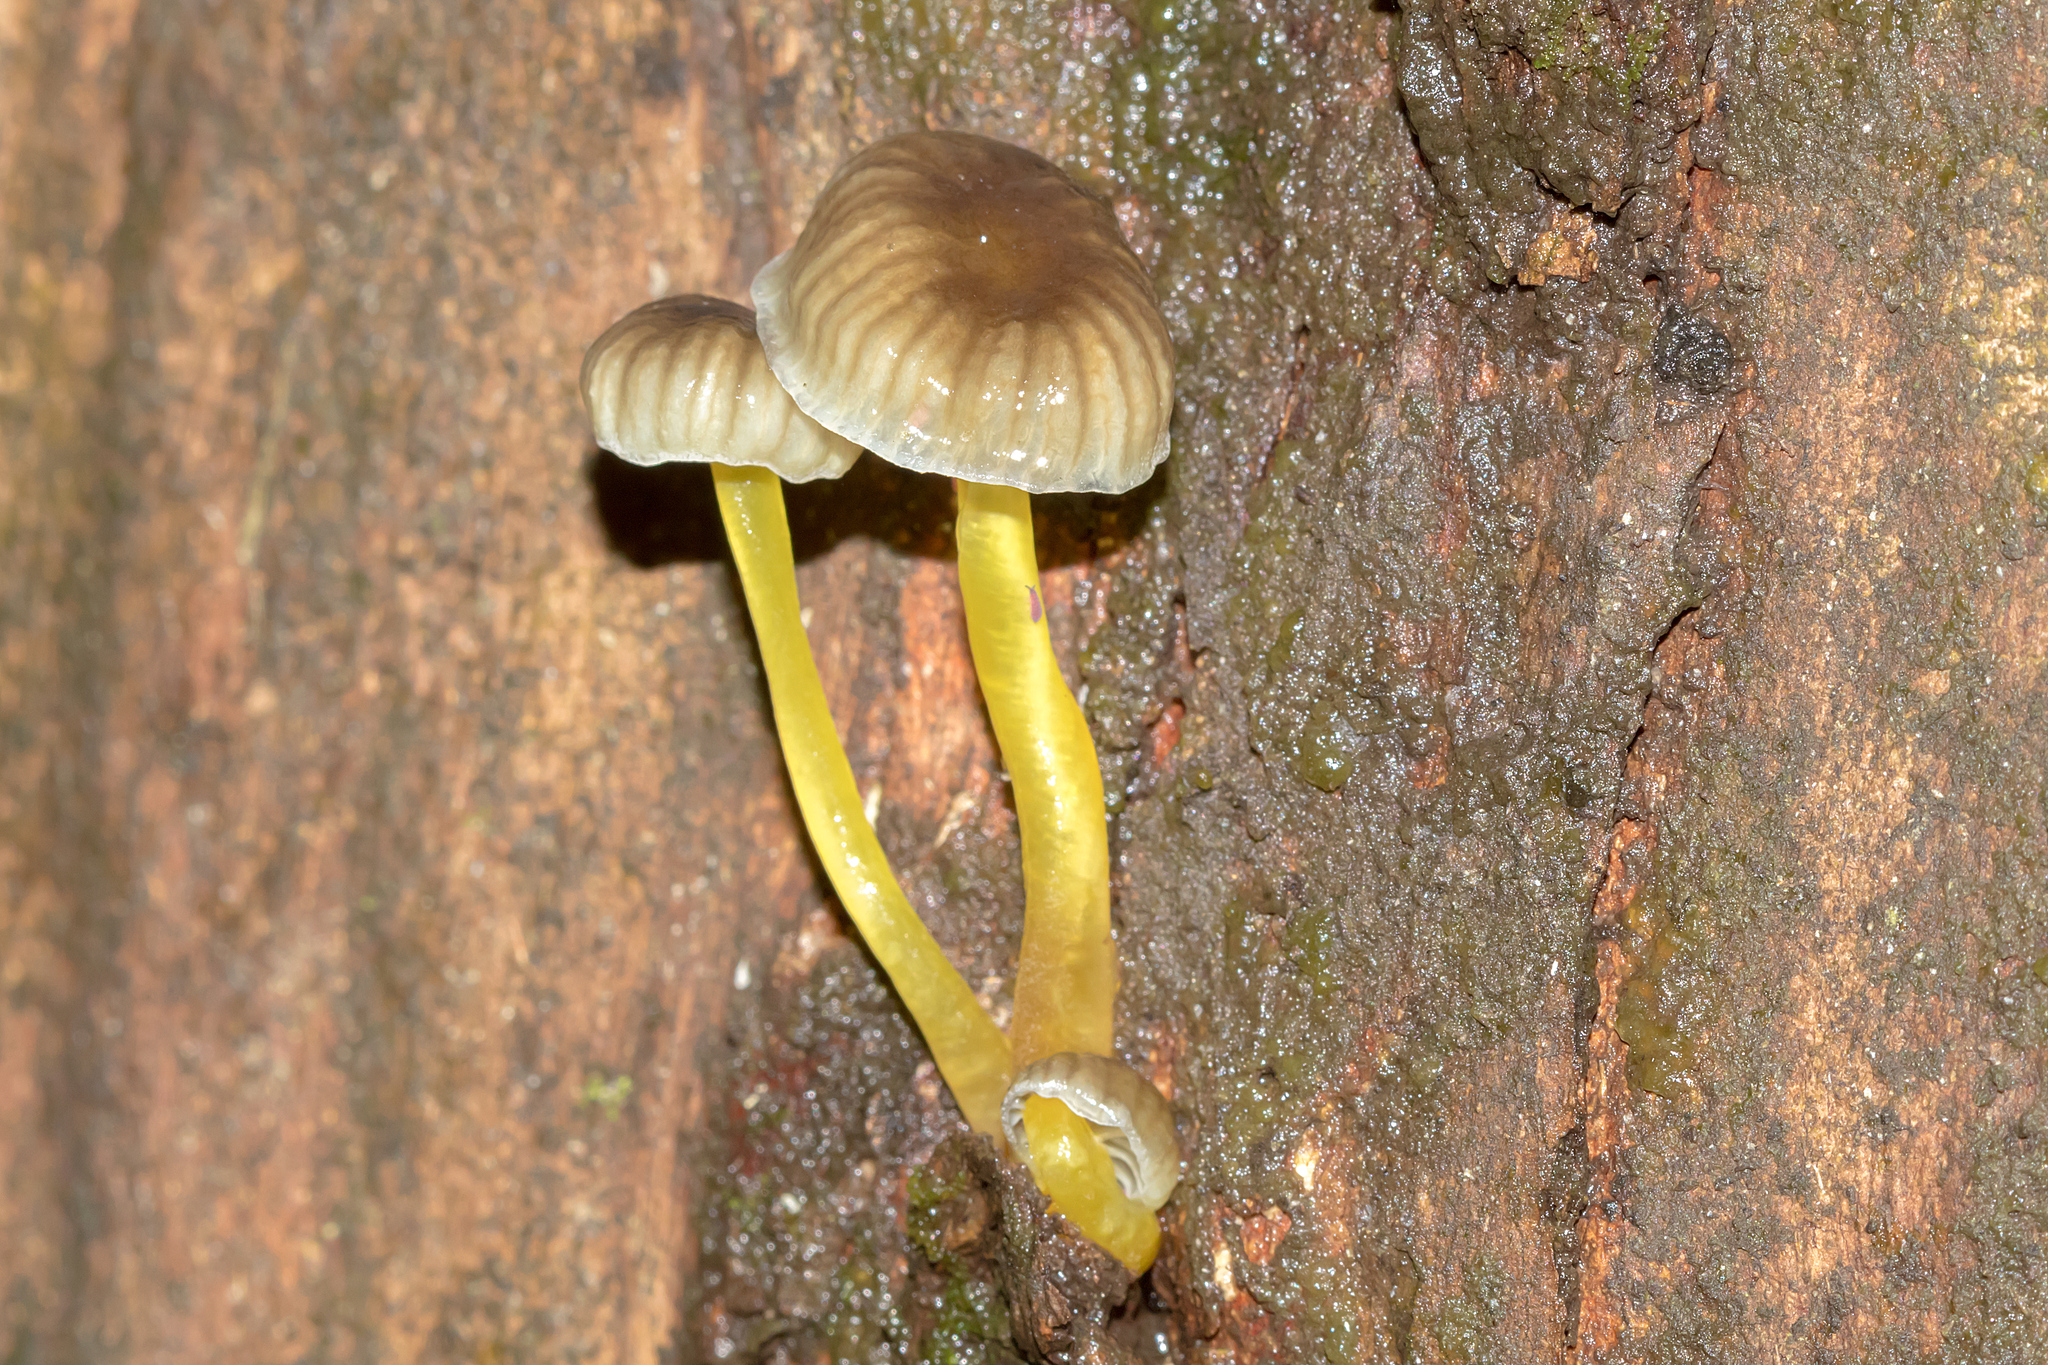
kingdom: Fungi
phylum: Basidiomycota
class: Agaricomycetes
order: Agaricales
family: Mycenaceae
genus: Mycena
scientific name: Mycena epipterygia
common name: Yellowleg bonnet
